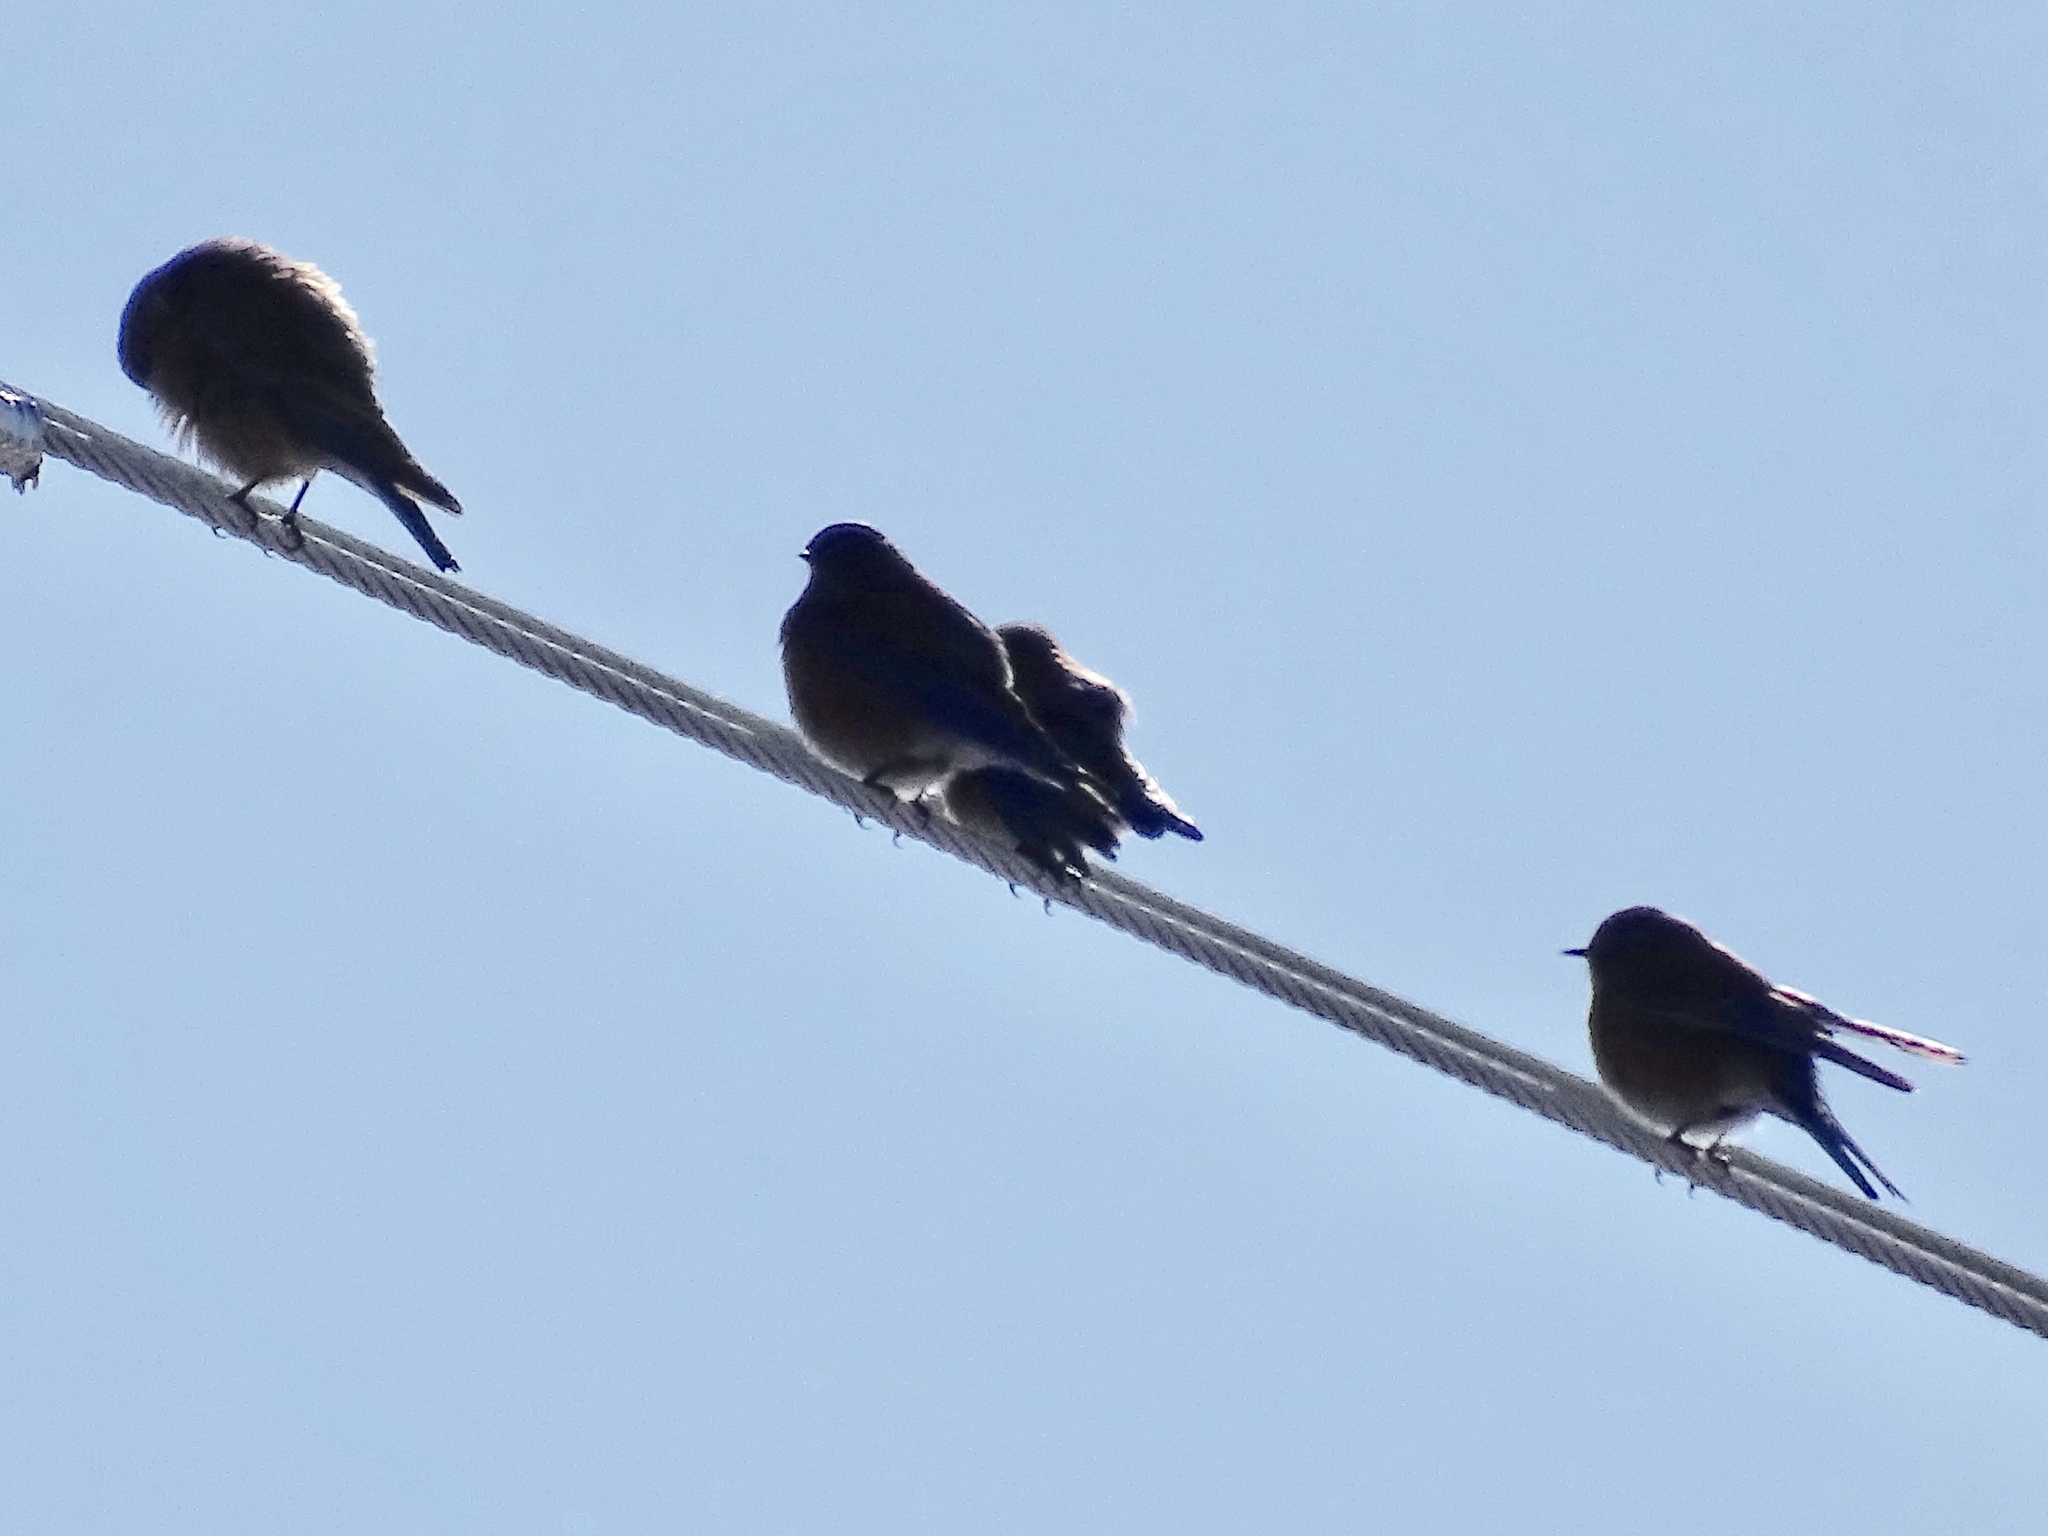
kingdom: Animalia
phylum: Chordata
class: Aves
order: Passeriformes
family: Turdidae
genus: Sialia
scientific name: Sialia mexicana
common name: Western bluebird
